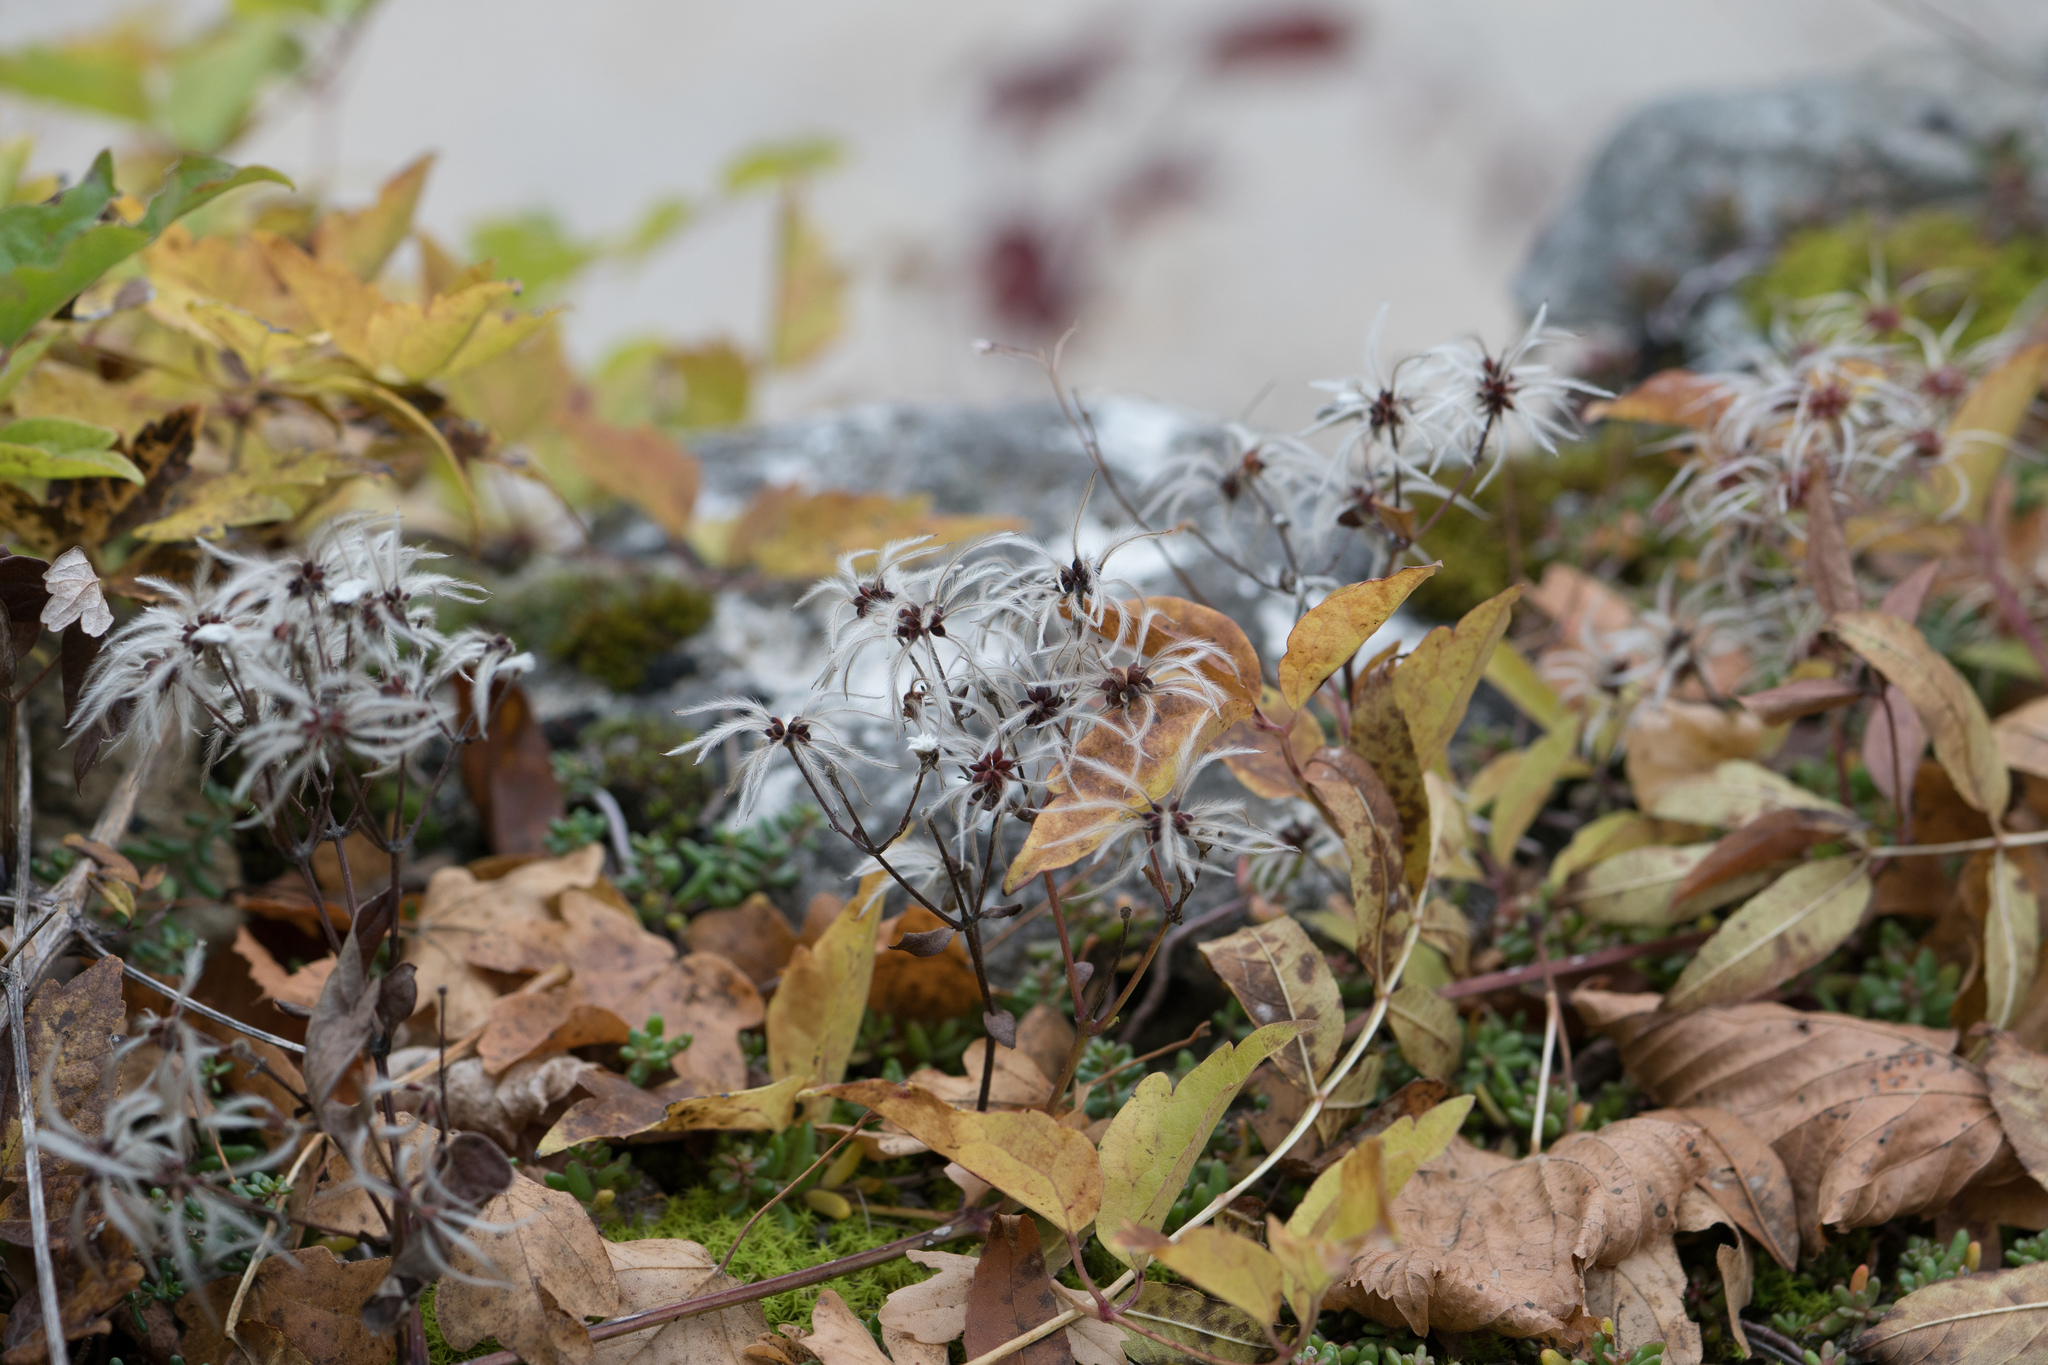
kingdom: Plantae
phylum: Tracheophyta
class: Magnoliopsida
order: Ranunculales
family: Ranunculaceae
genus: Clematis
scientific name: Clematis vitalba
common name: Evergreen clematis
